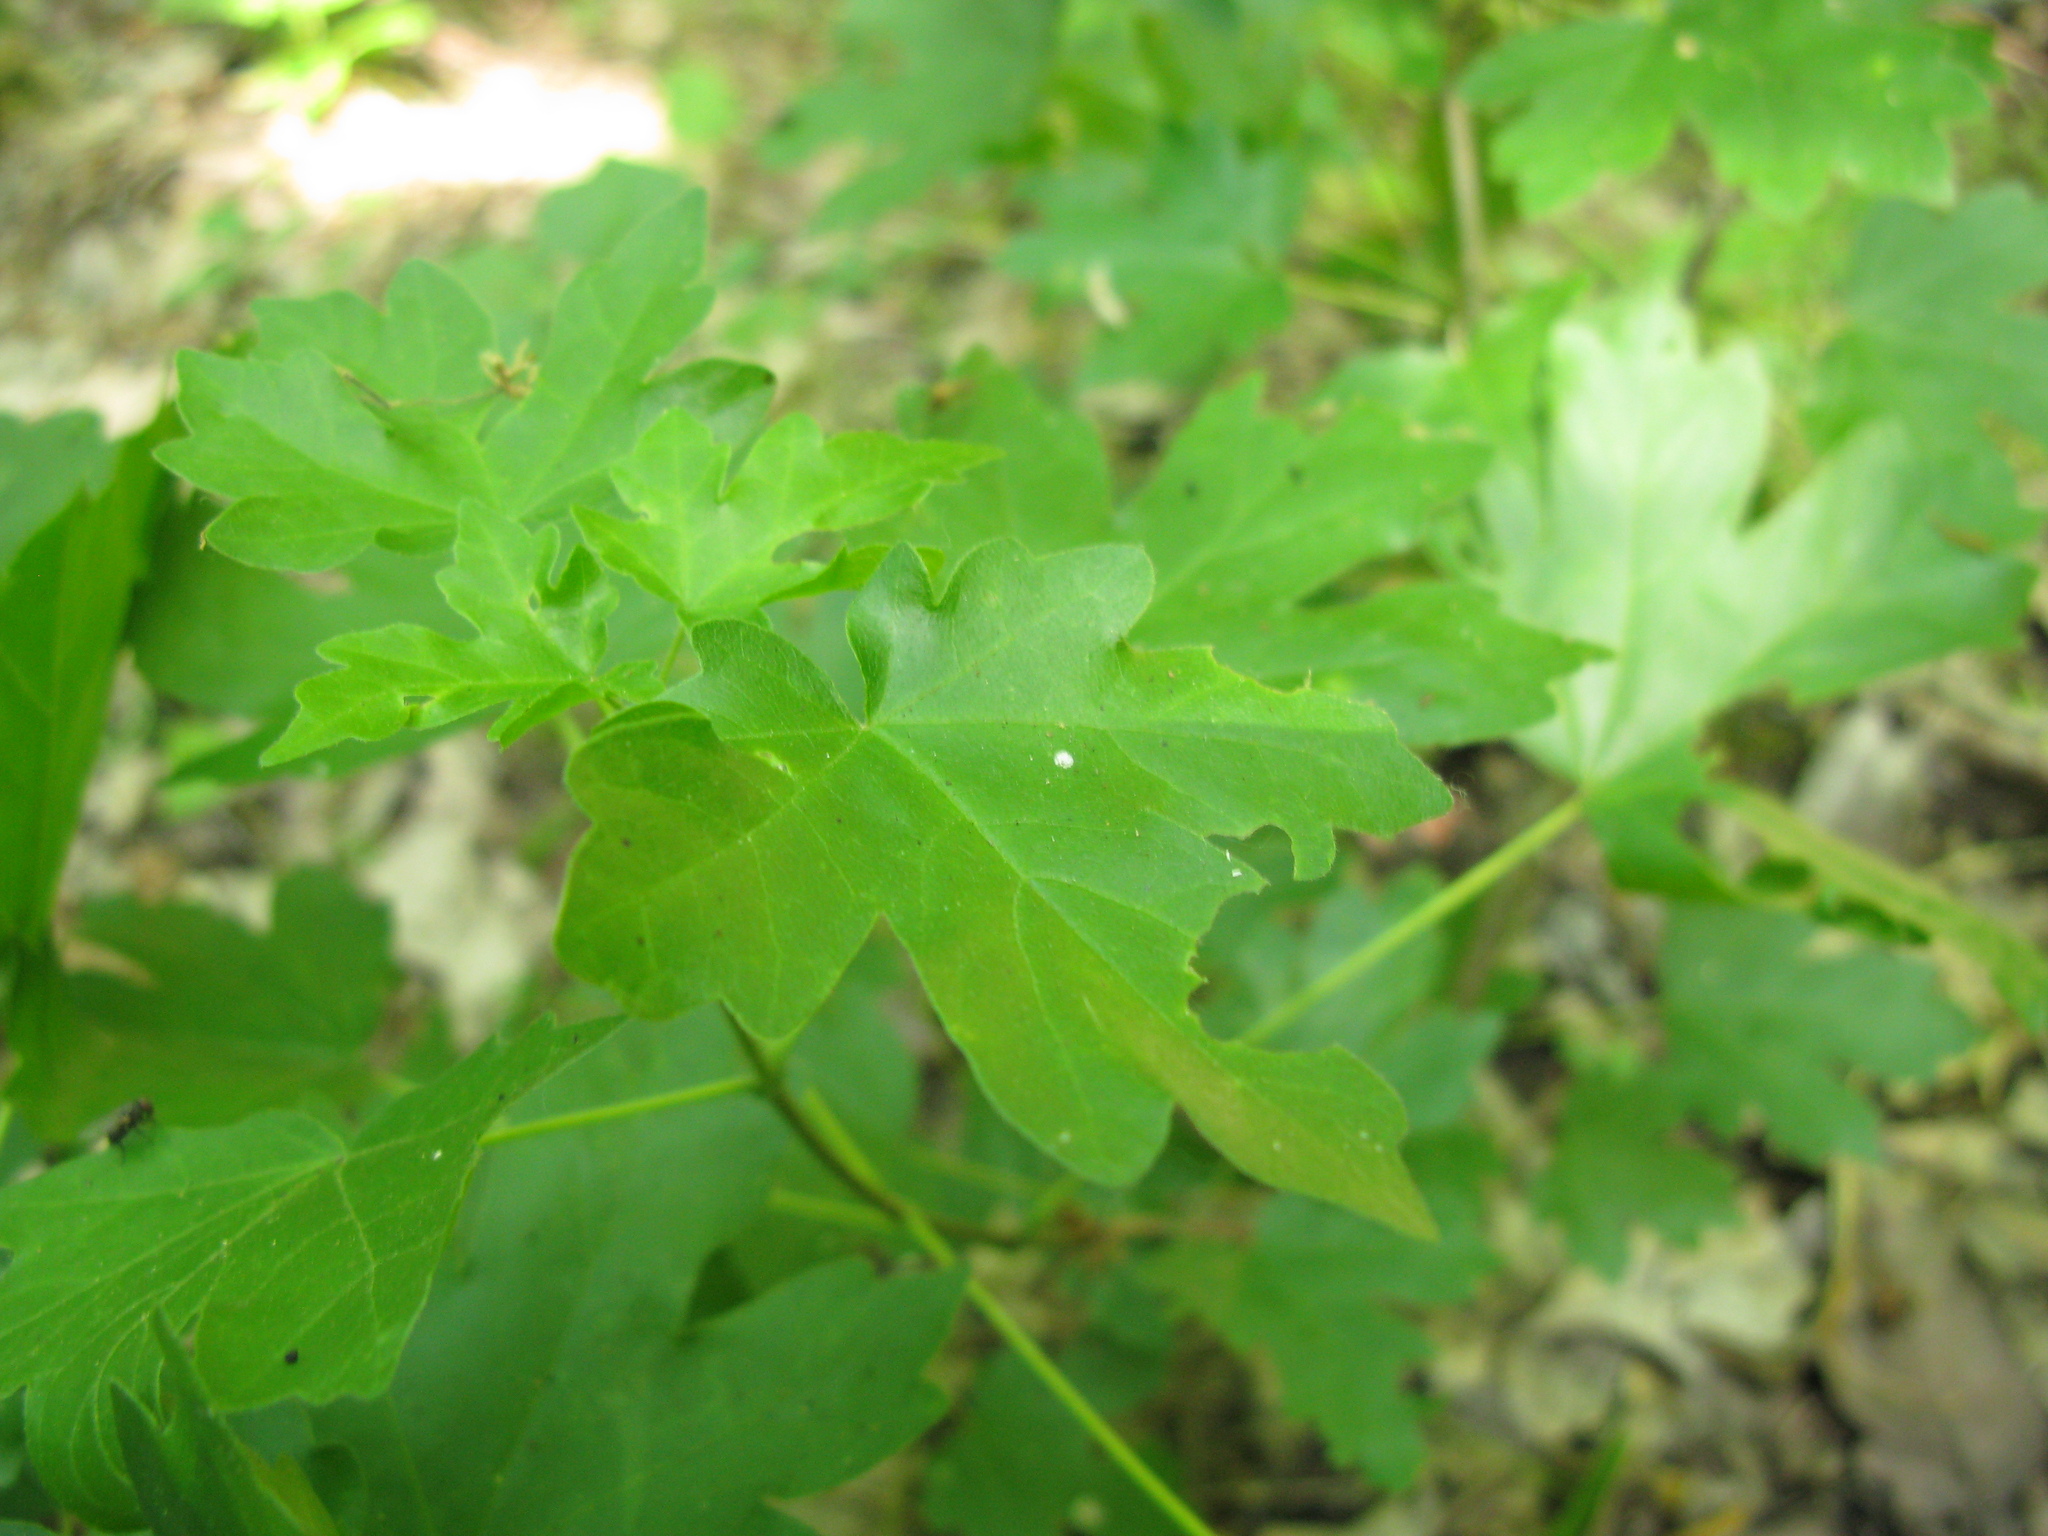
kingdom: Plantae
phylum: Tracheophyta
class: Magnoliopsida
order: Sapindales
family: Sapindaceae
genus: Acer
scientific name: Acer campestre
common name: Field maple
